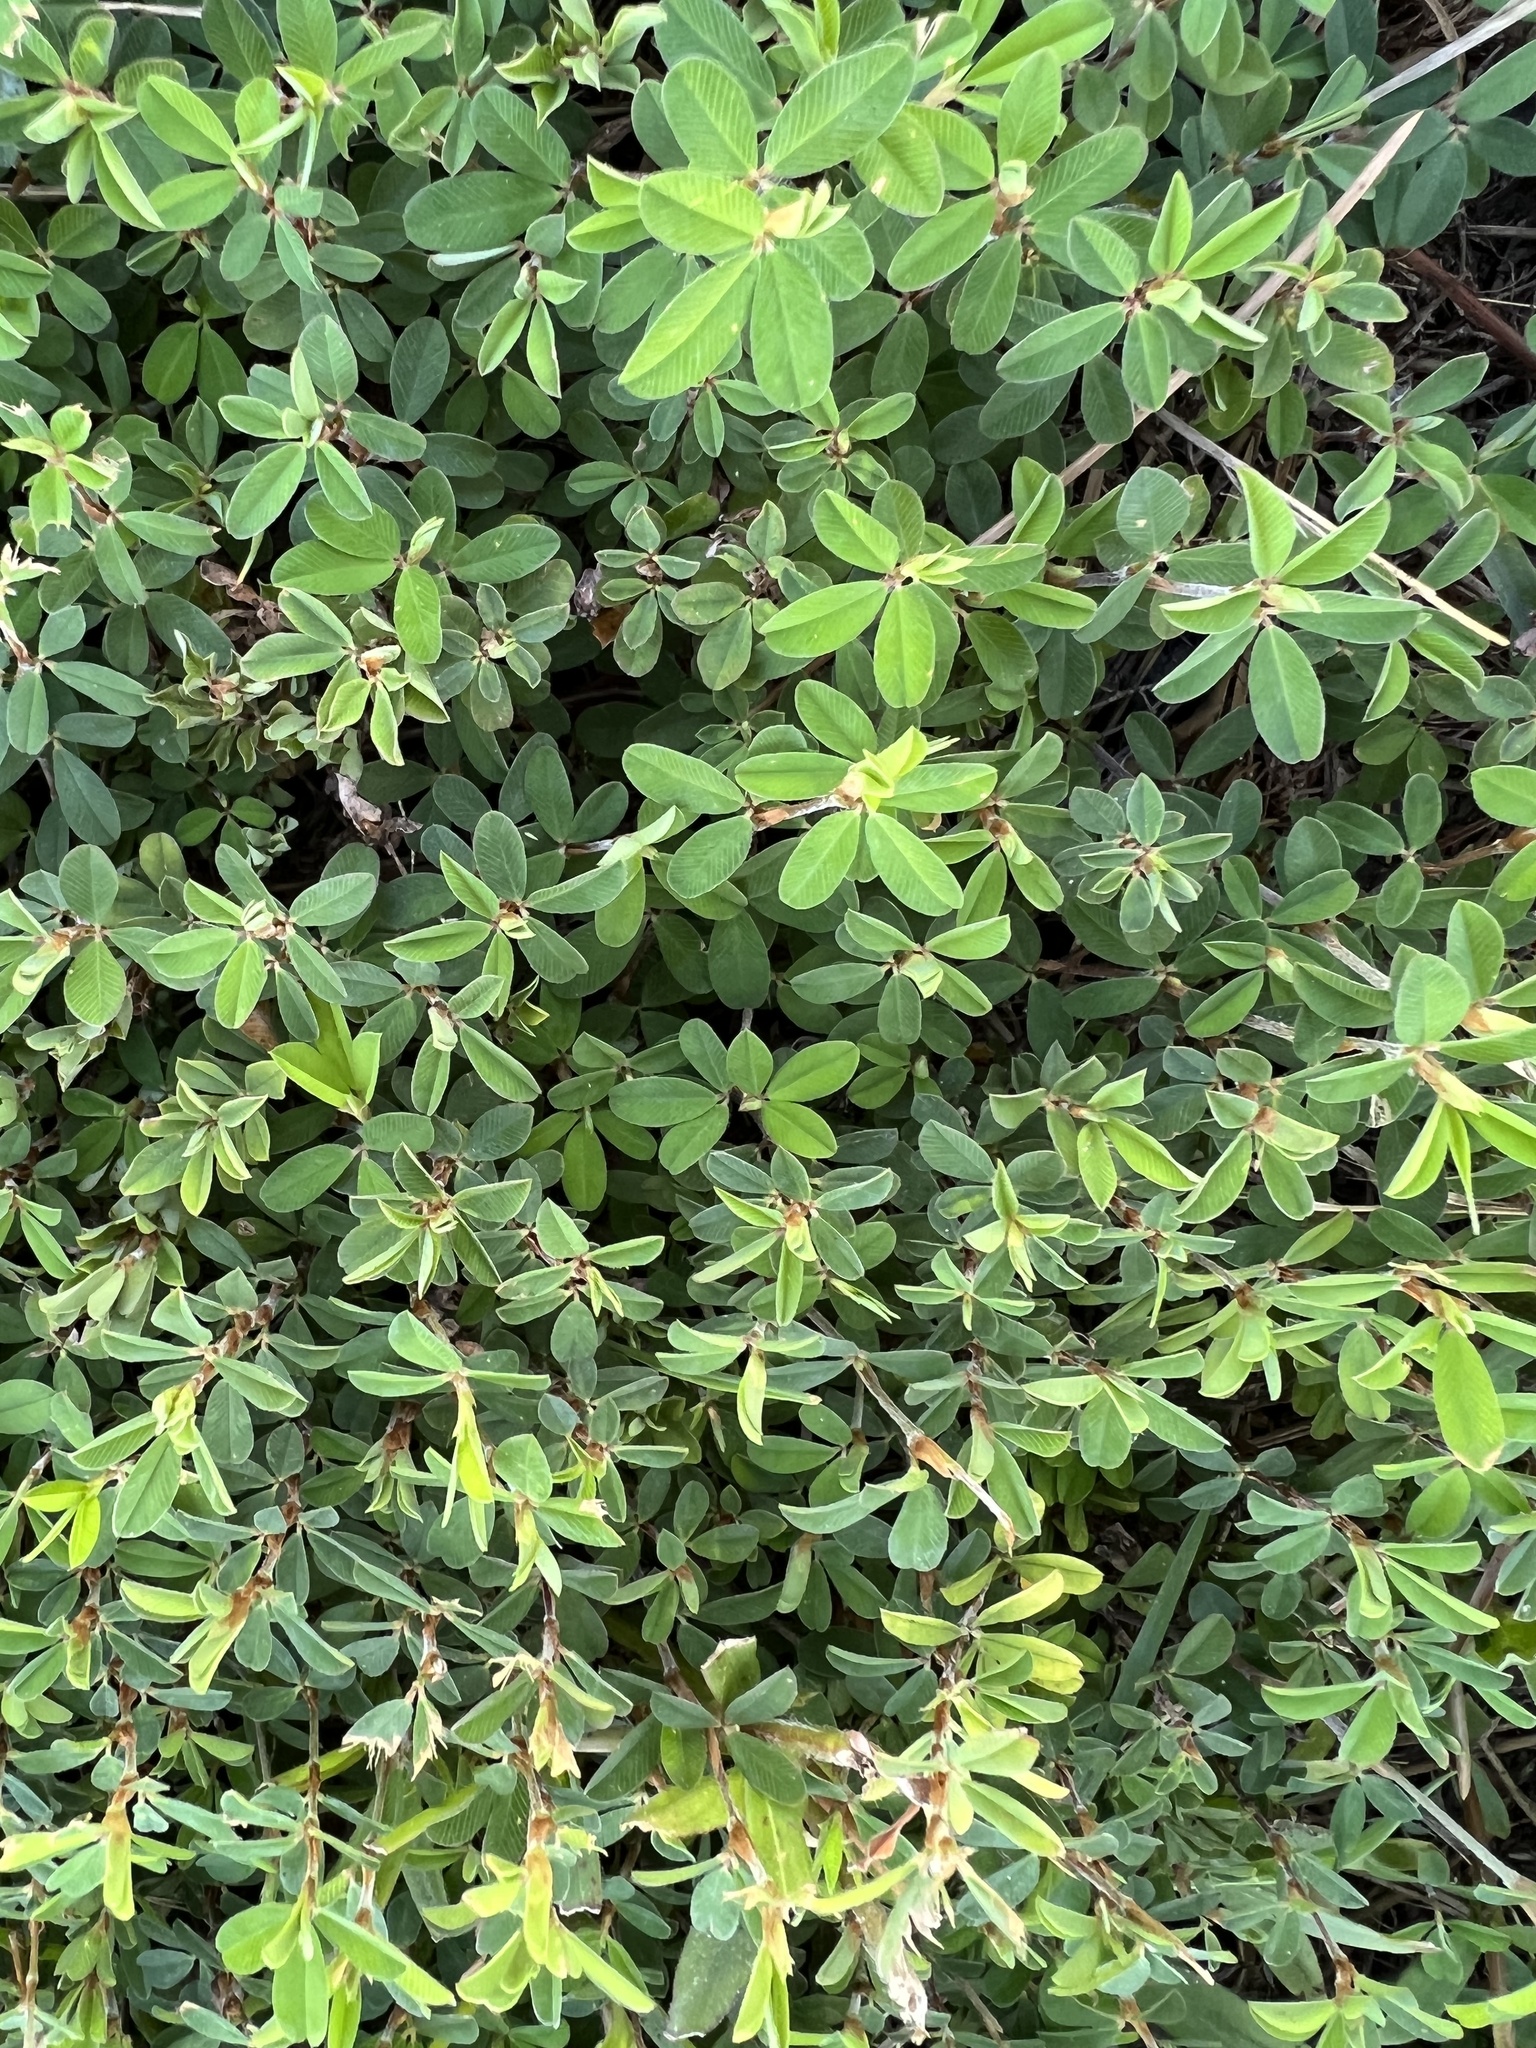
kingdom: Plantae
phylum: Tracheophyta
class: Magnoliopsida
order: Fabales
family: Fabaceae
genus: Kummerowia
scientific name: Kummerowia striata
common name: Japanese clover
